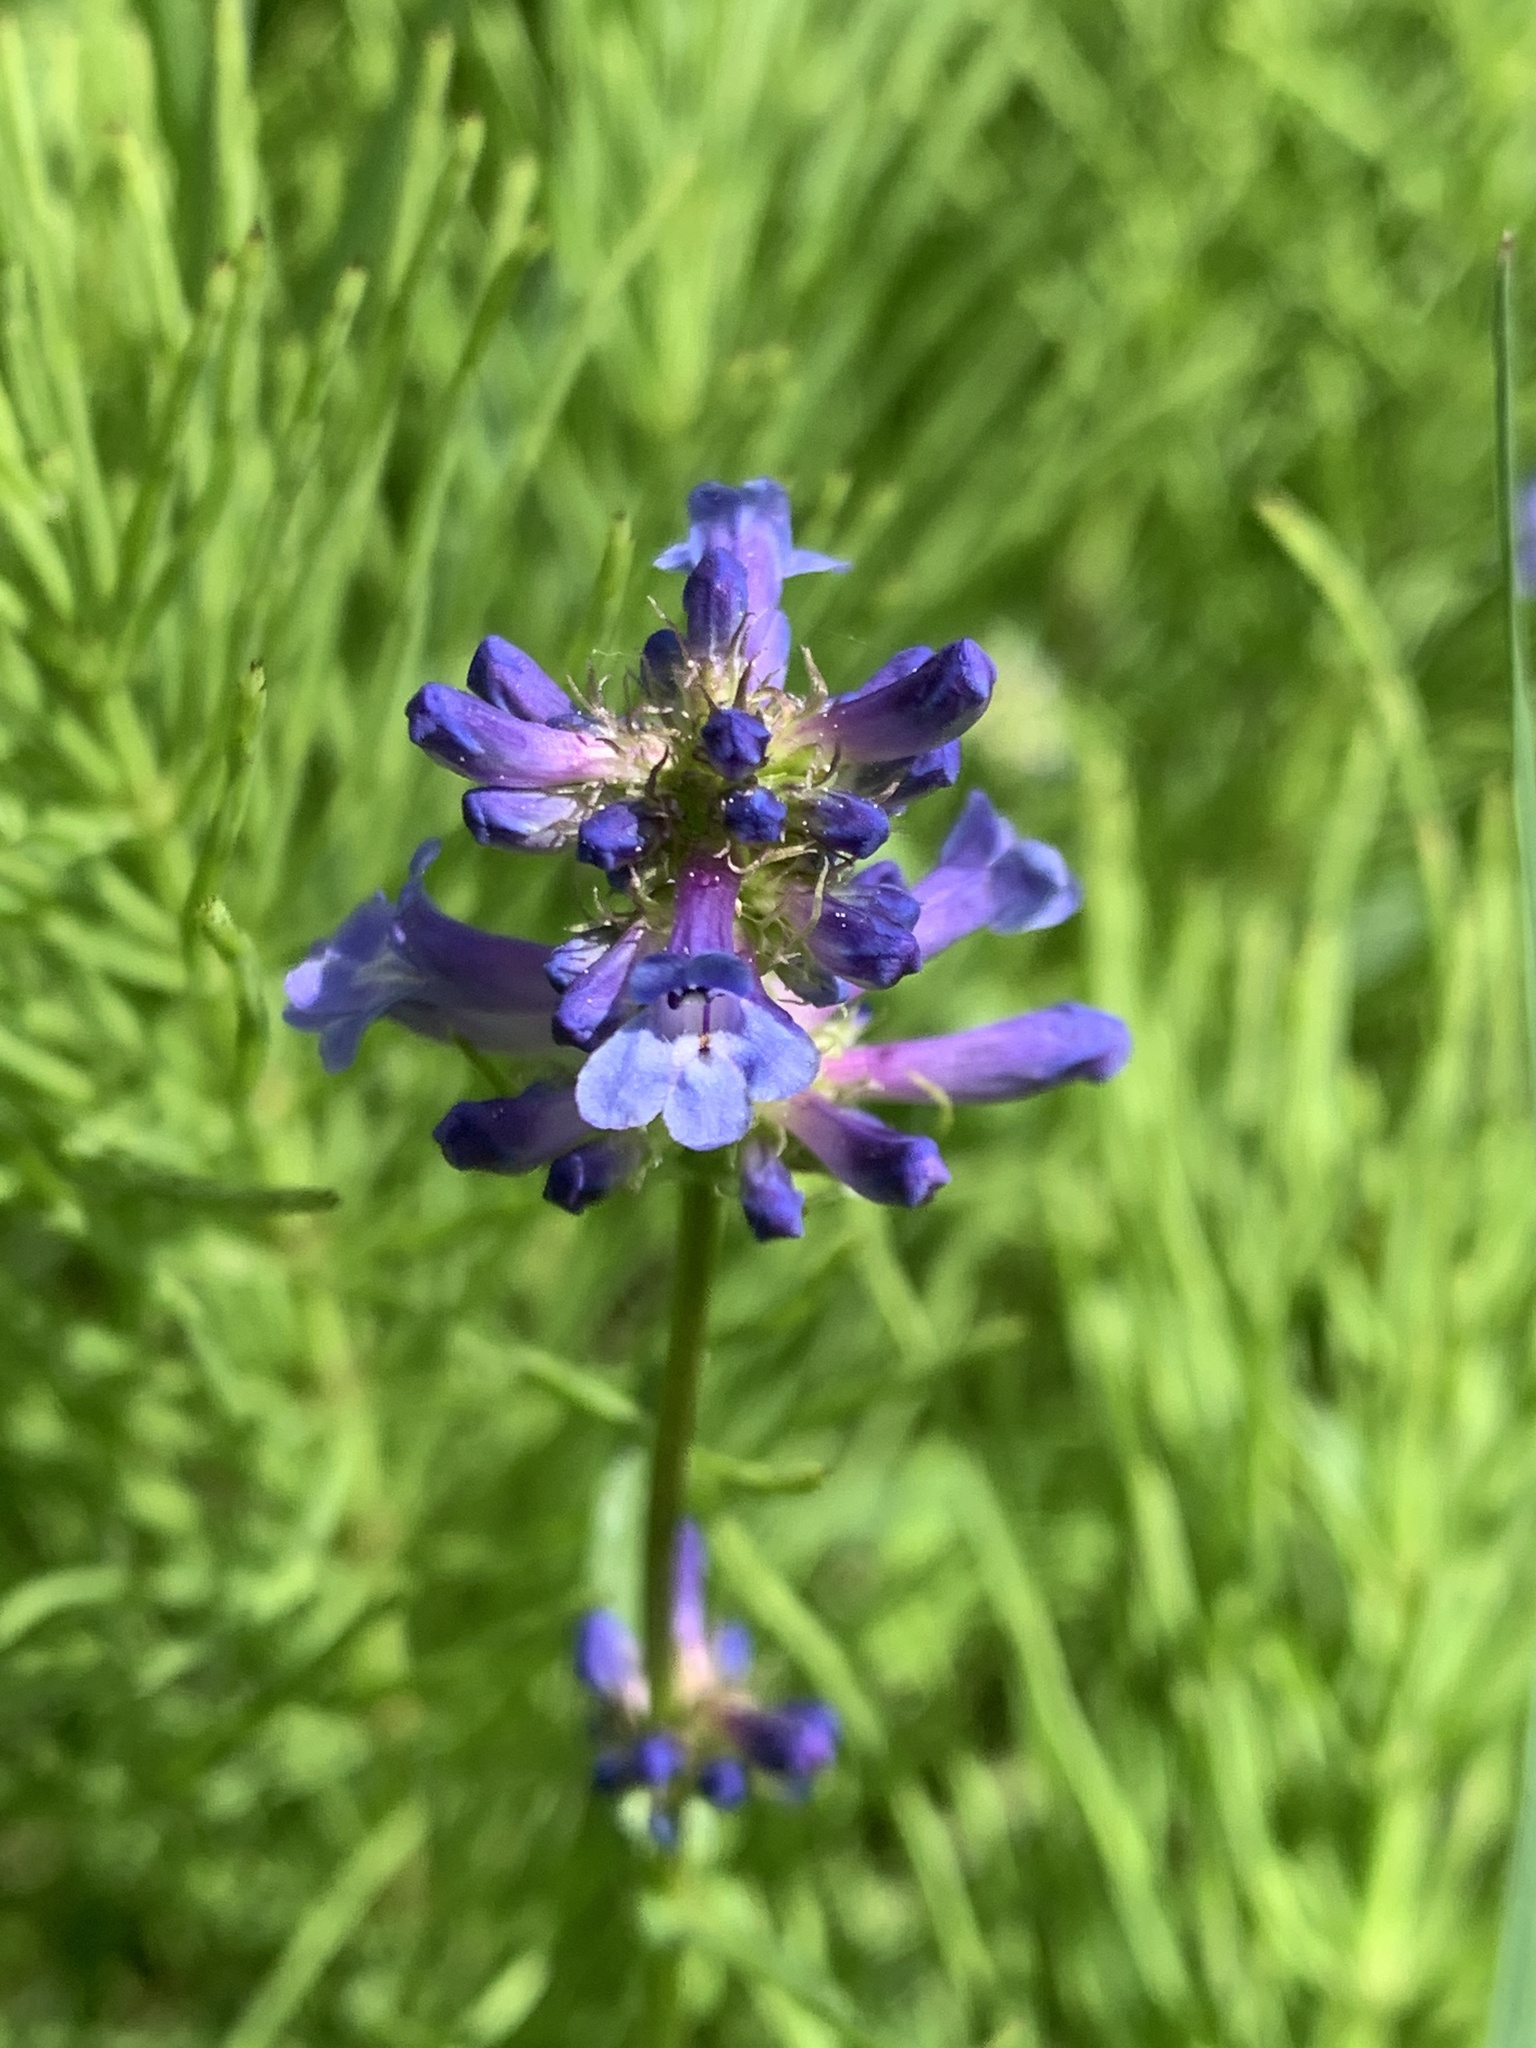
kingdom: Plantae
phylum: Tracheophyta
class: Magnoliopsida
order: Lamiales
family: Plantaginaceae
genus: Penstemon
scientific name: Penstemon procerus
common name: Small-flower penstemon
